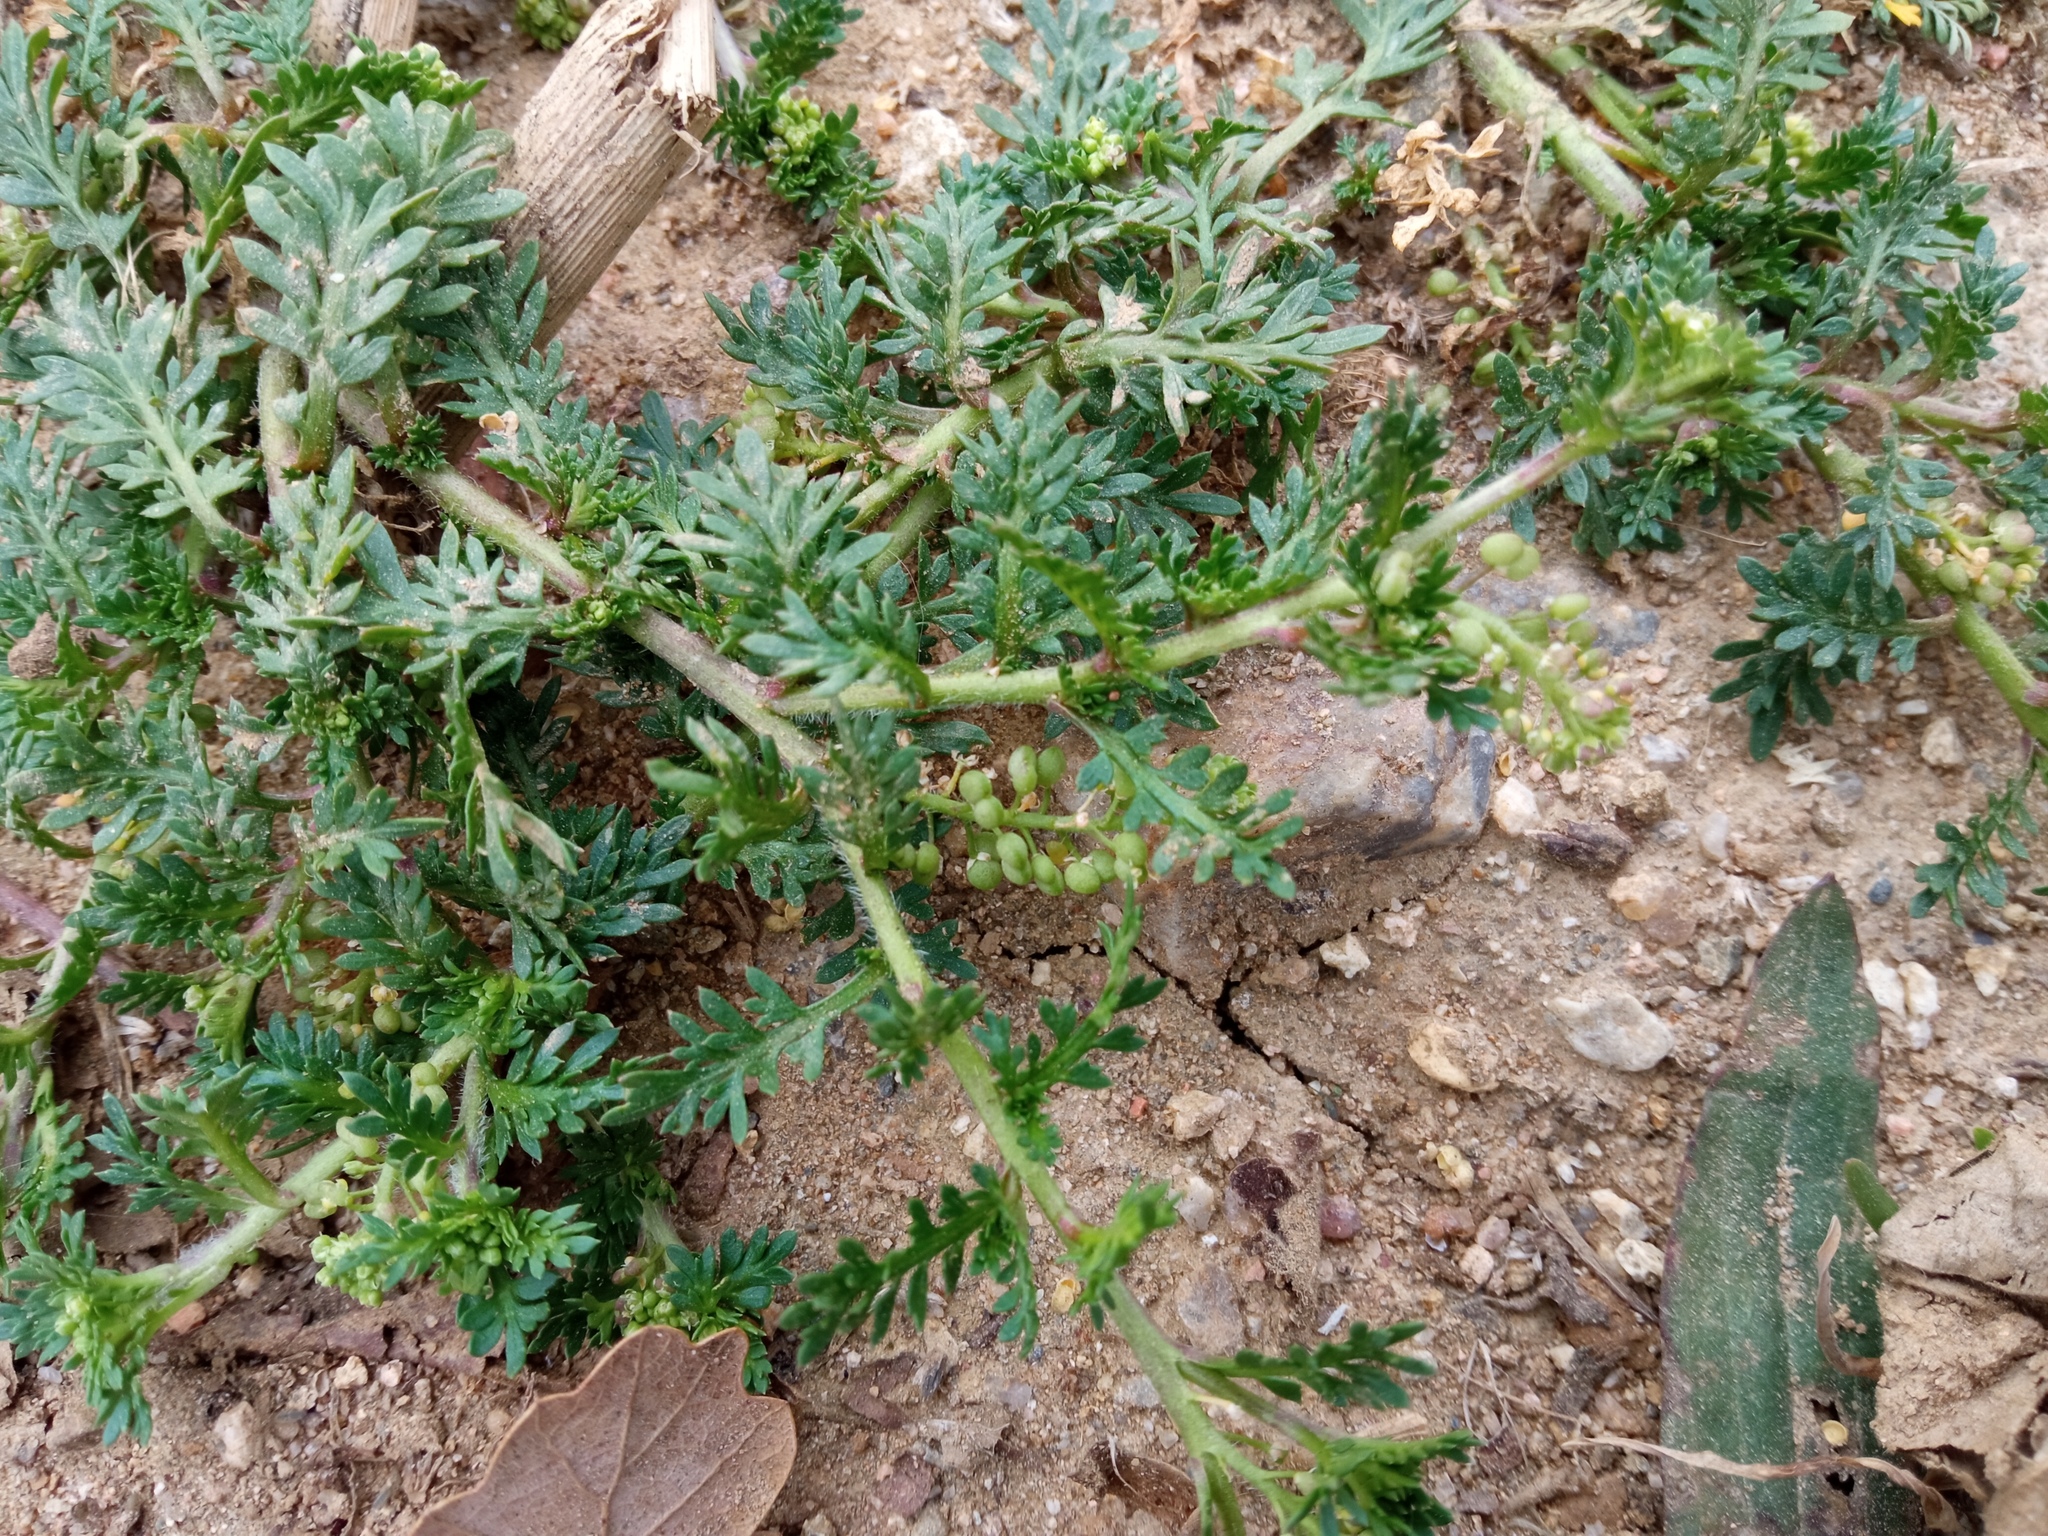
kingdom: Plantae
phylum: Tracheophyta
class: Magnoliopsida
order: Brassicales
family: Brassicaceae
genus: Lepidium
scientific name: Lepidium didymum
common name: Lesser swinecress
